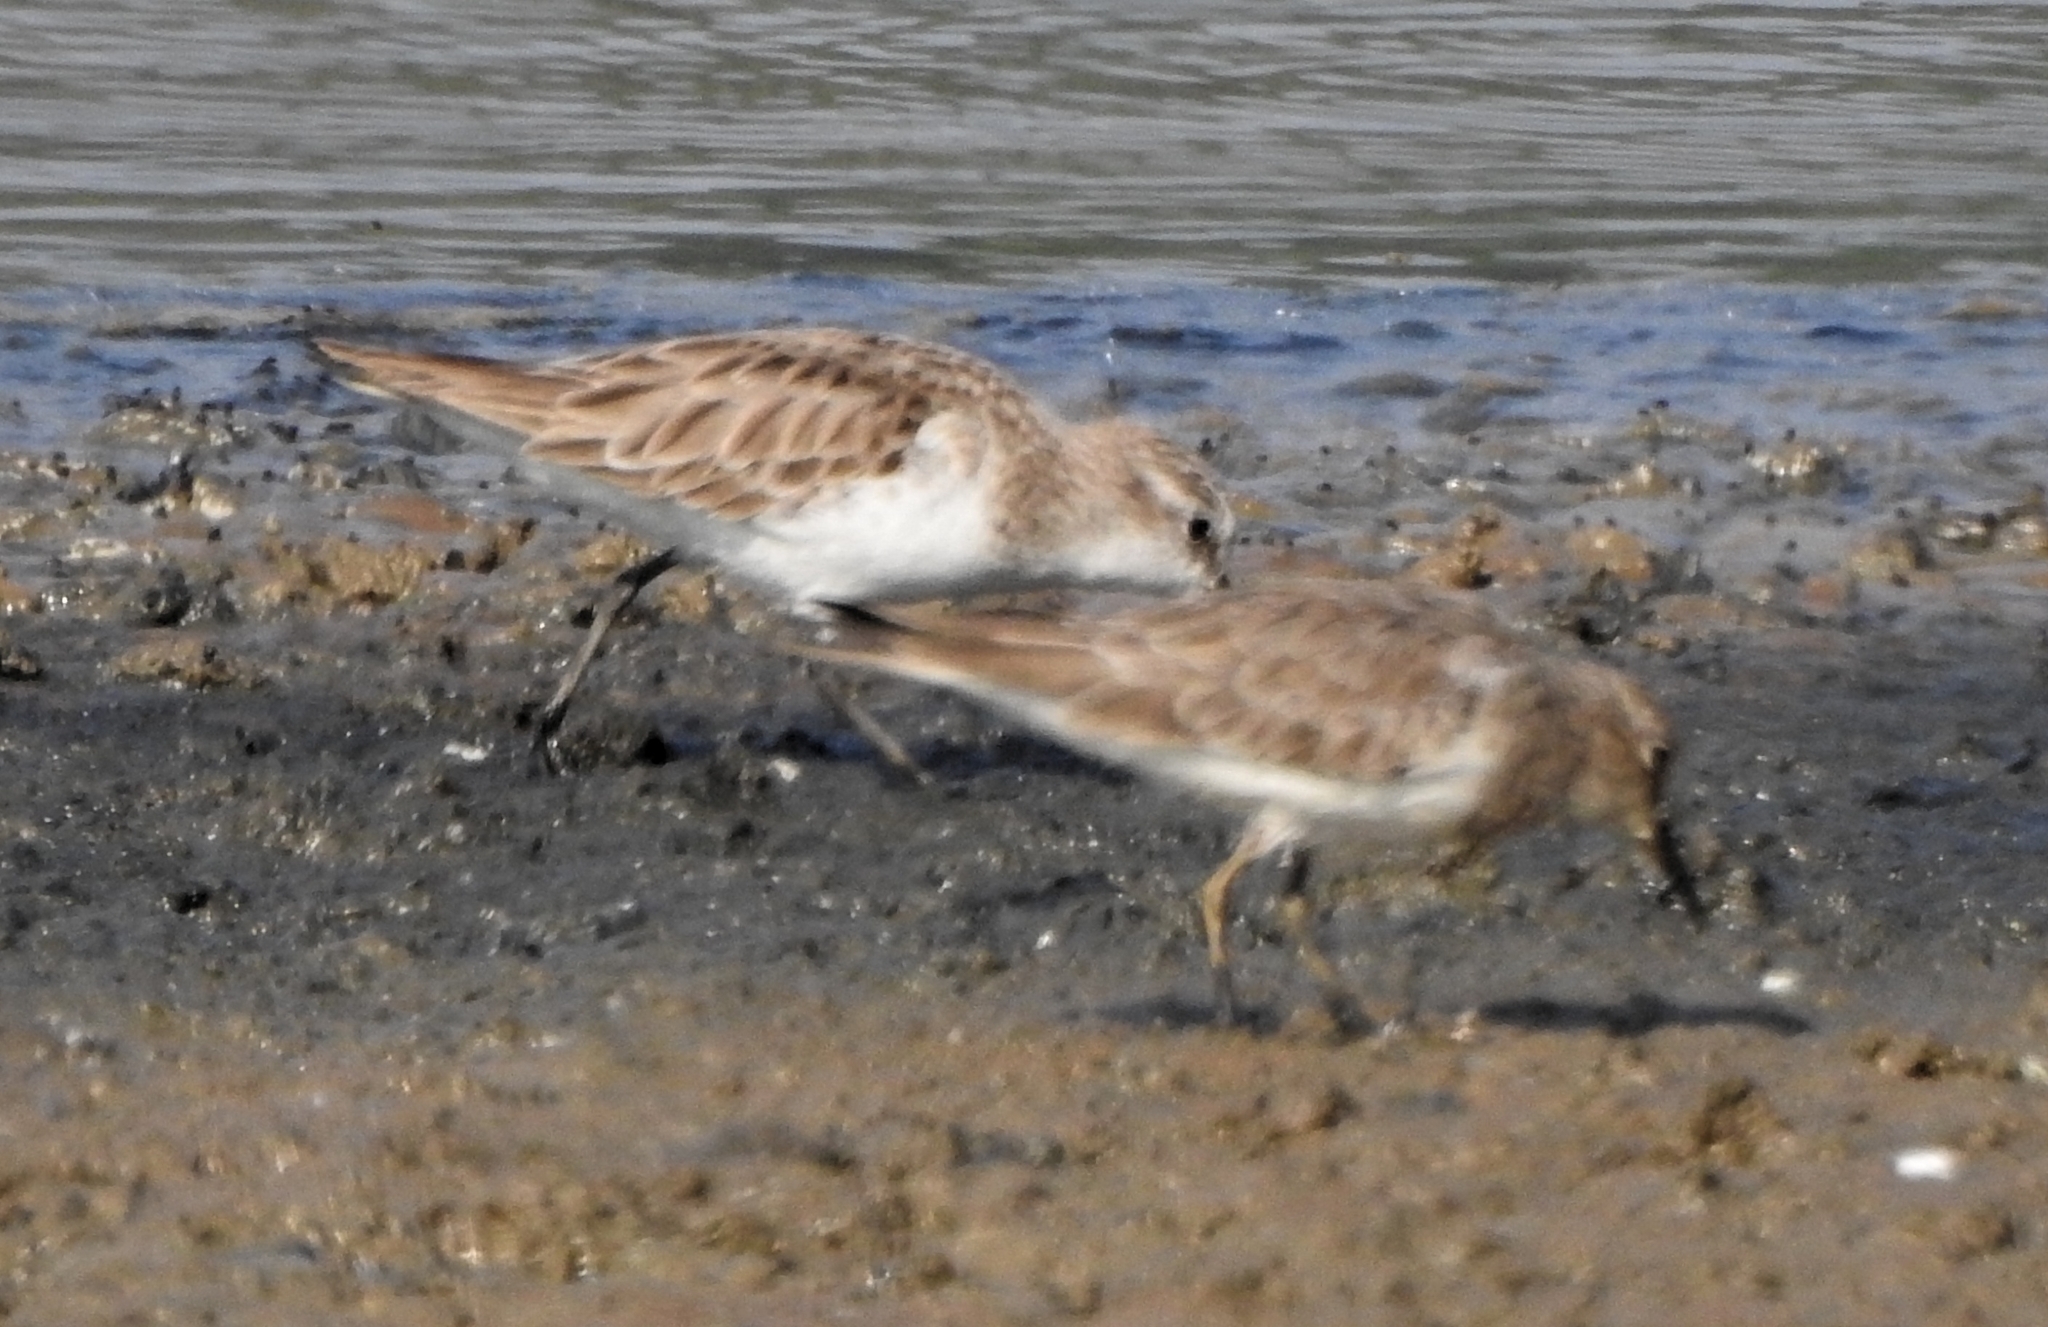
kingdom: Animalia
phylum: Chordata
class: Aves
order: Charadriiformes
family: Scolopacidae
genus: Calidris
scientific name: Calidris minuta
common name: Little stint
